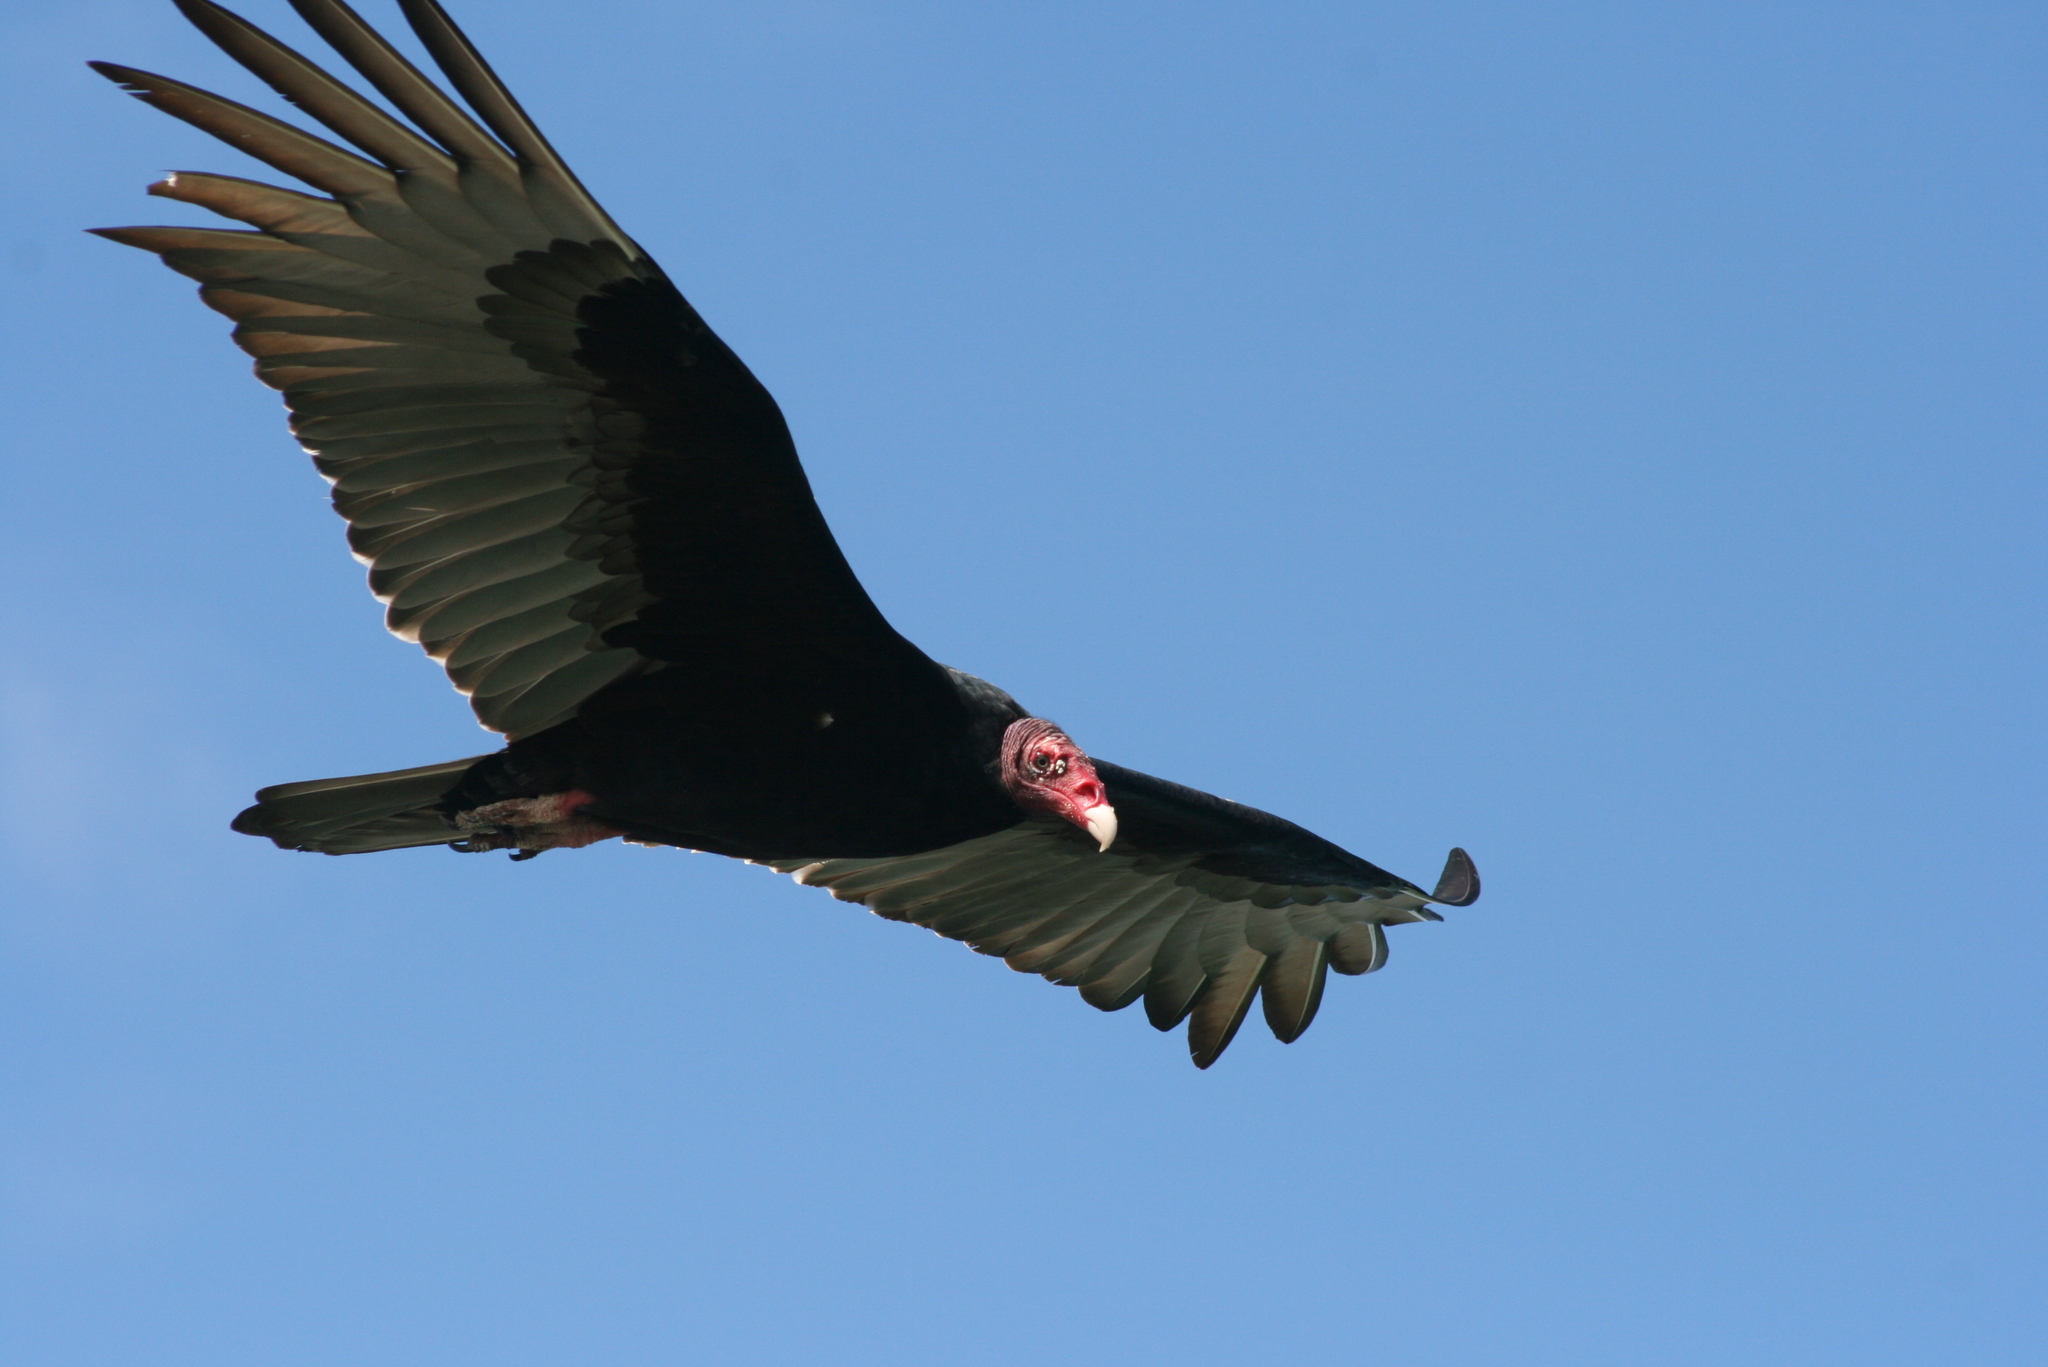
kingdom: Animalia
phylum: Chordata
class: Aves
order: Accipitriformes
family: Cathartidae
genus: Cathartes
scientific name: Cathartes aura
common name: Turkey vulture
